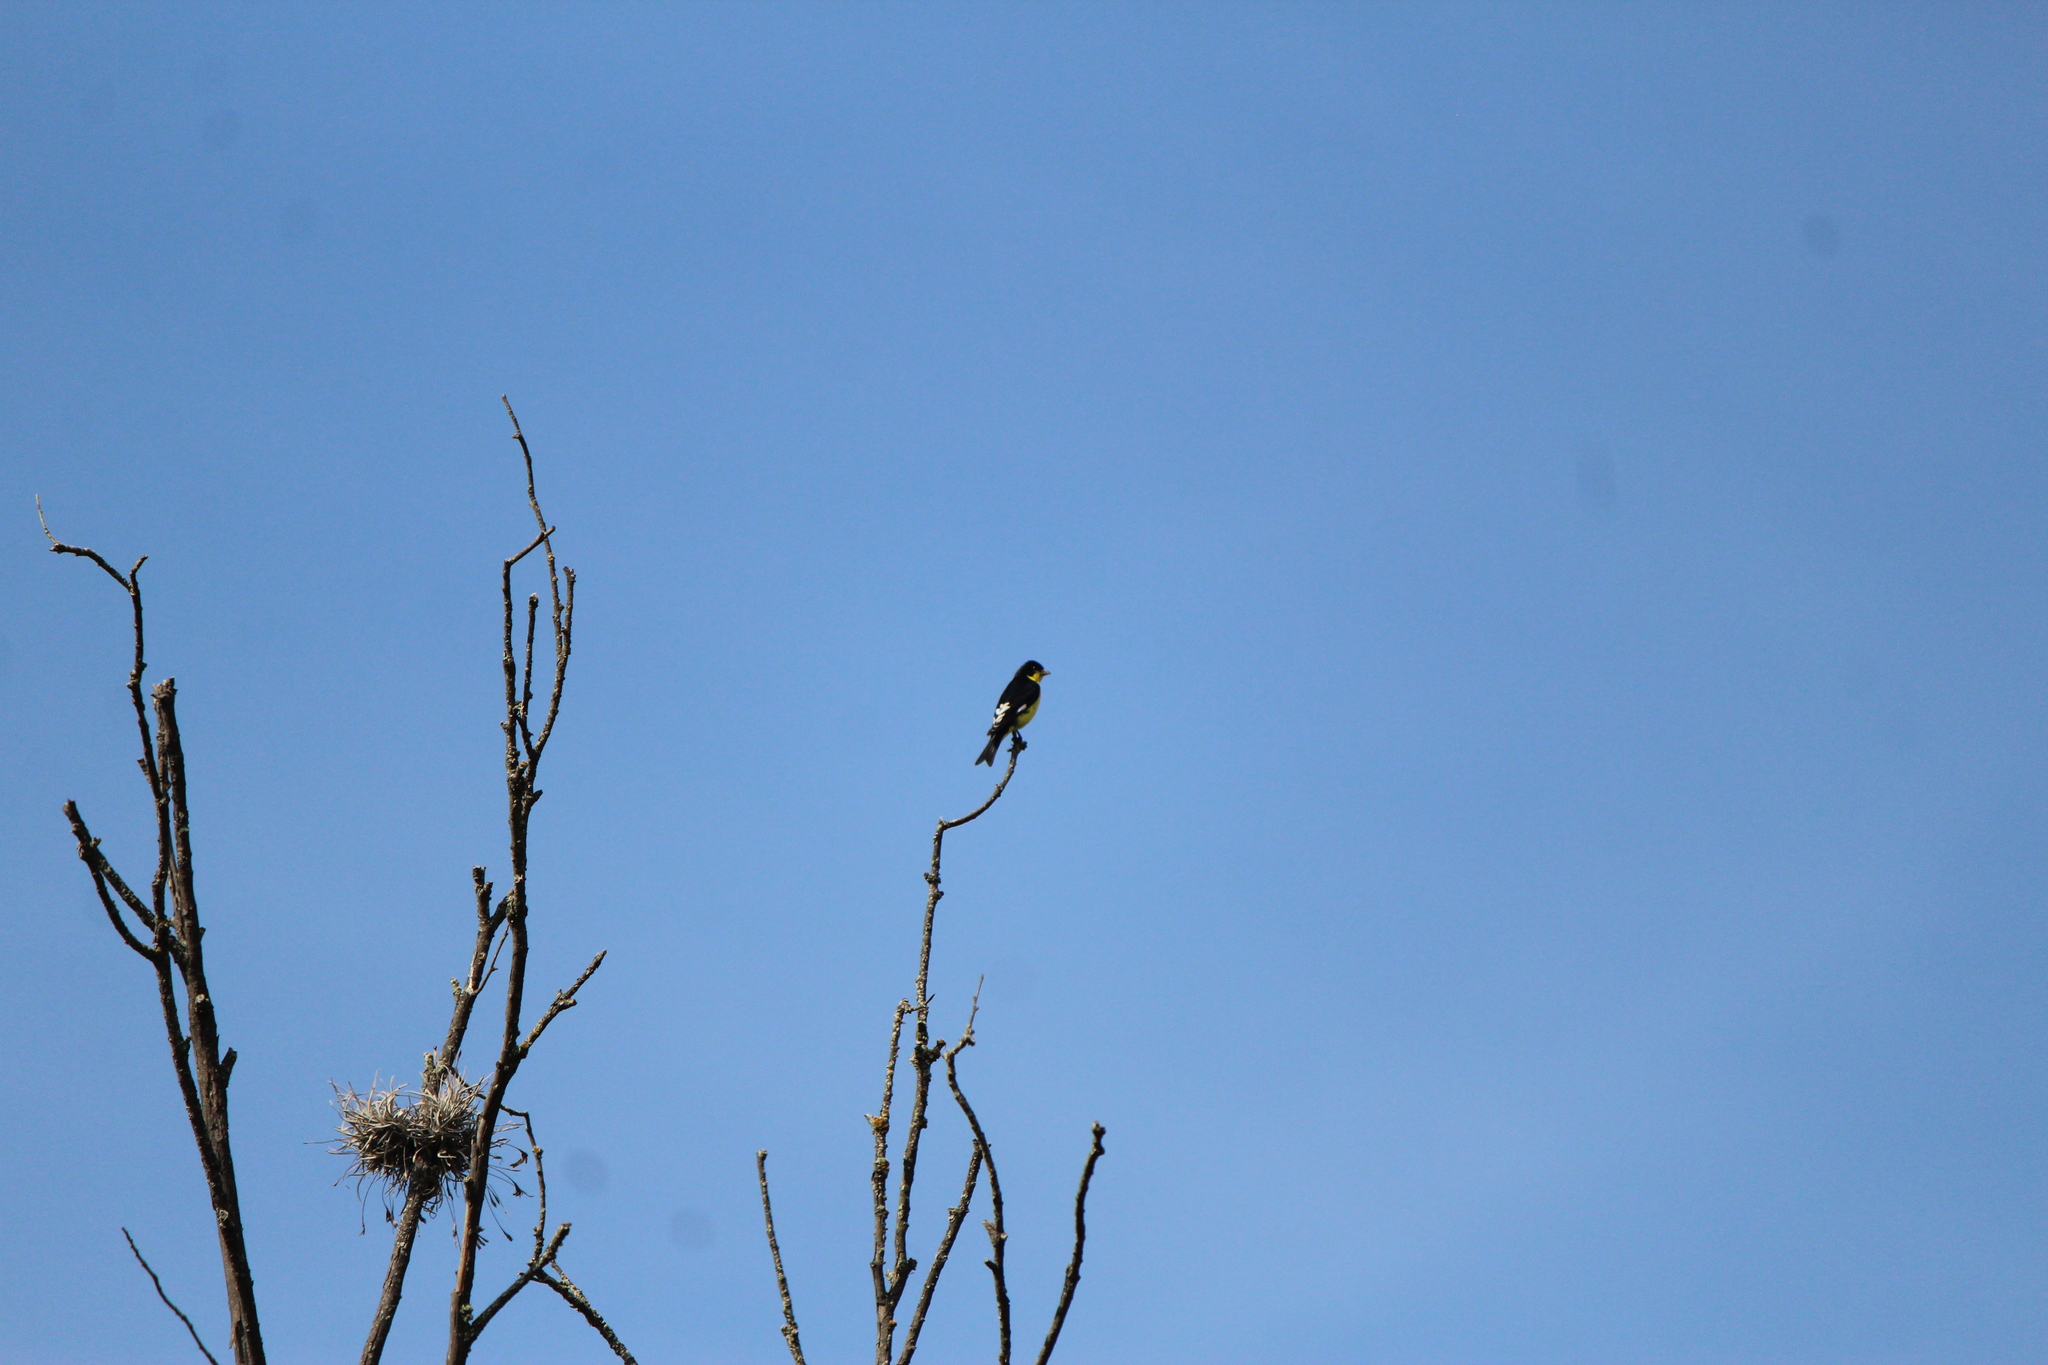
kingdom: Animalia
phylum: Chordata
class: Aves
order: Passeriformes
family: Fringillidae
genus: Spinus
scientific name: Spinus psaltria
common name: Lesser goldfinch
